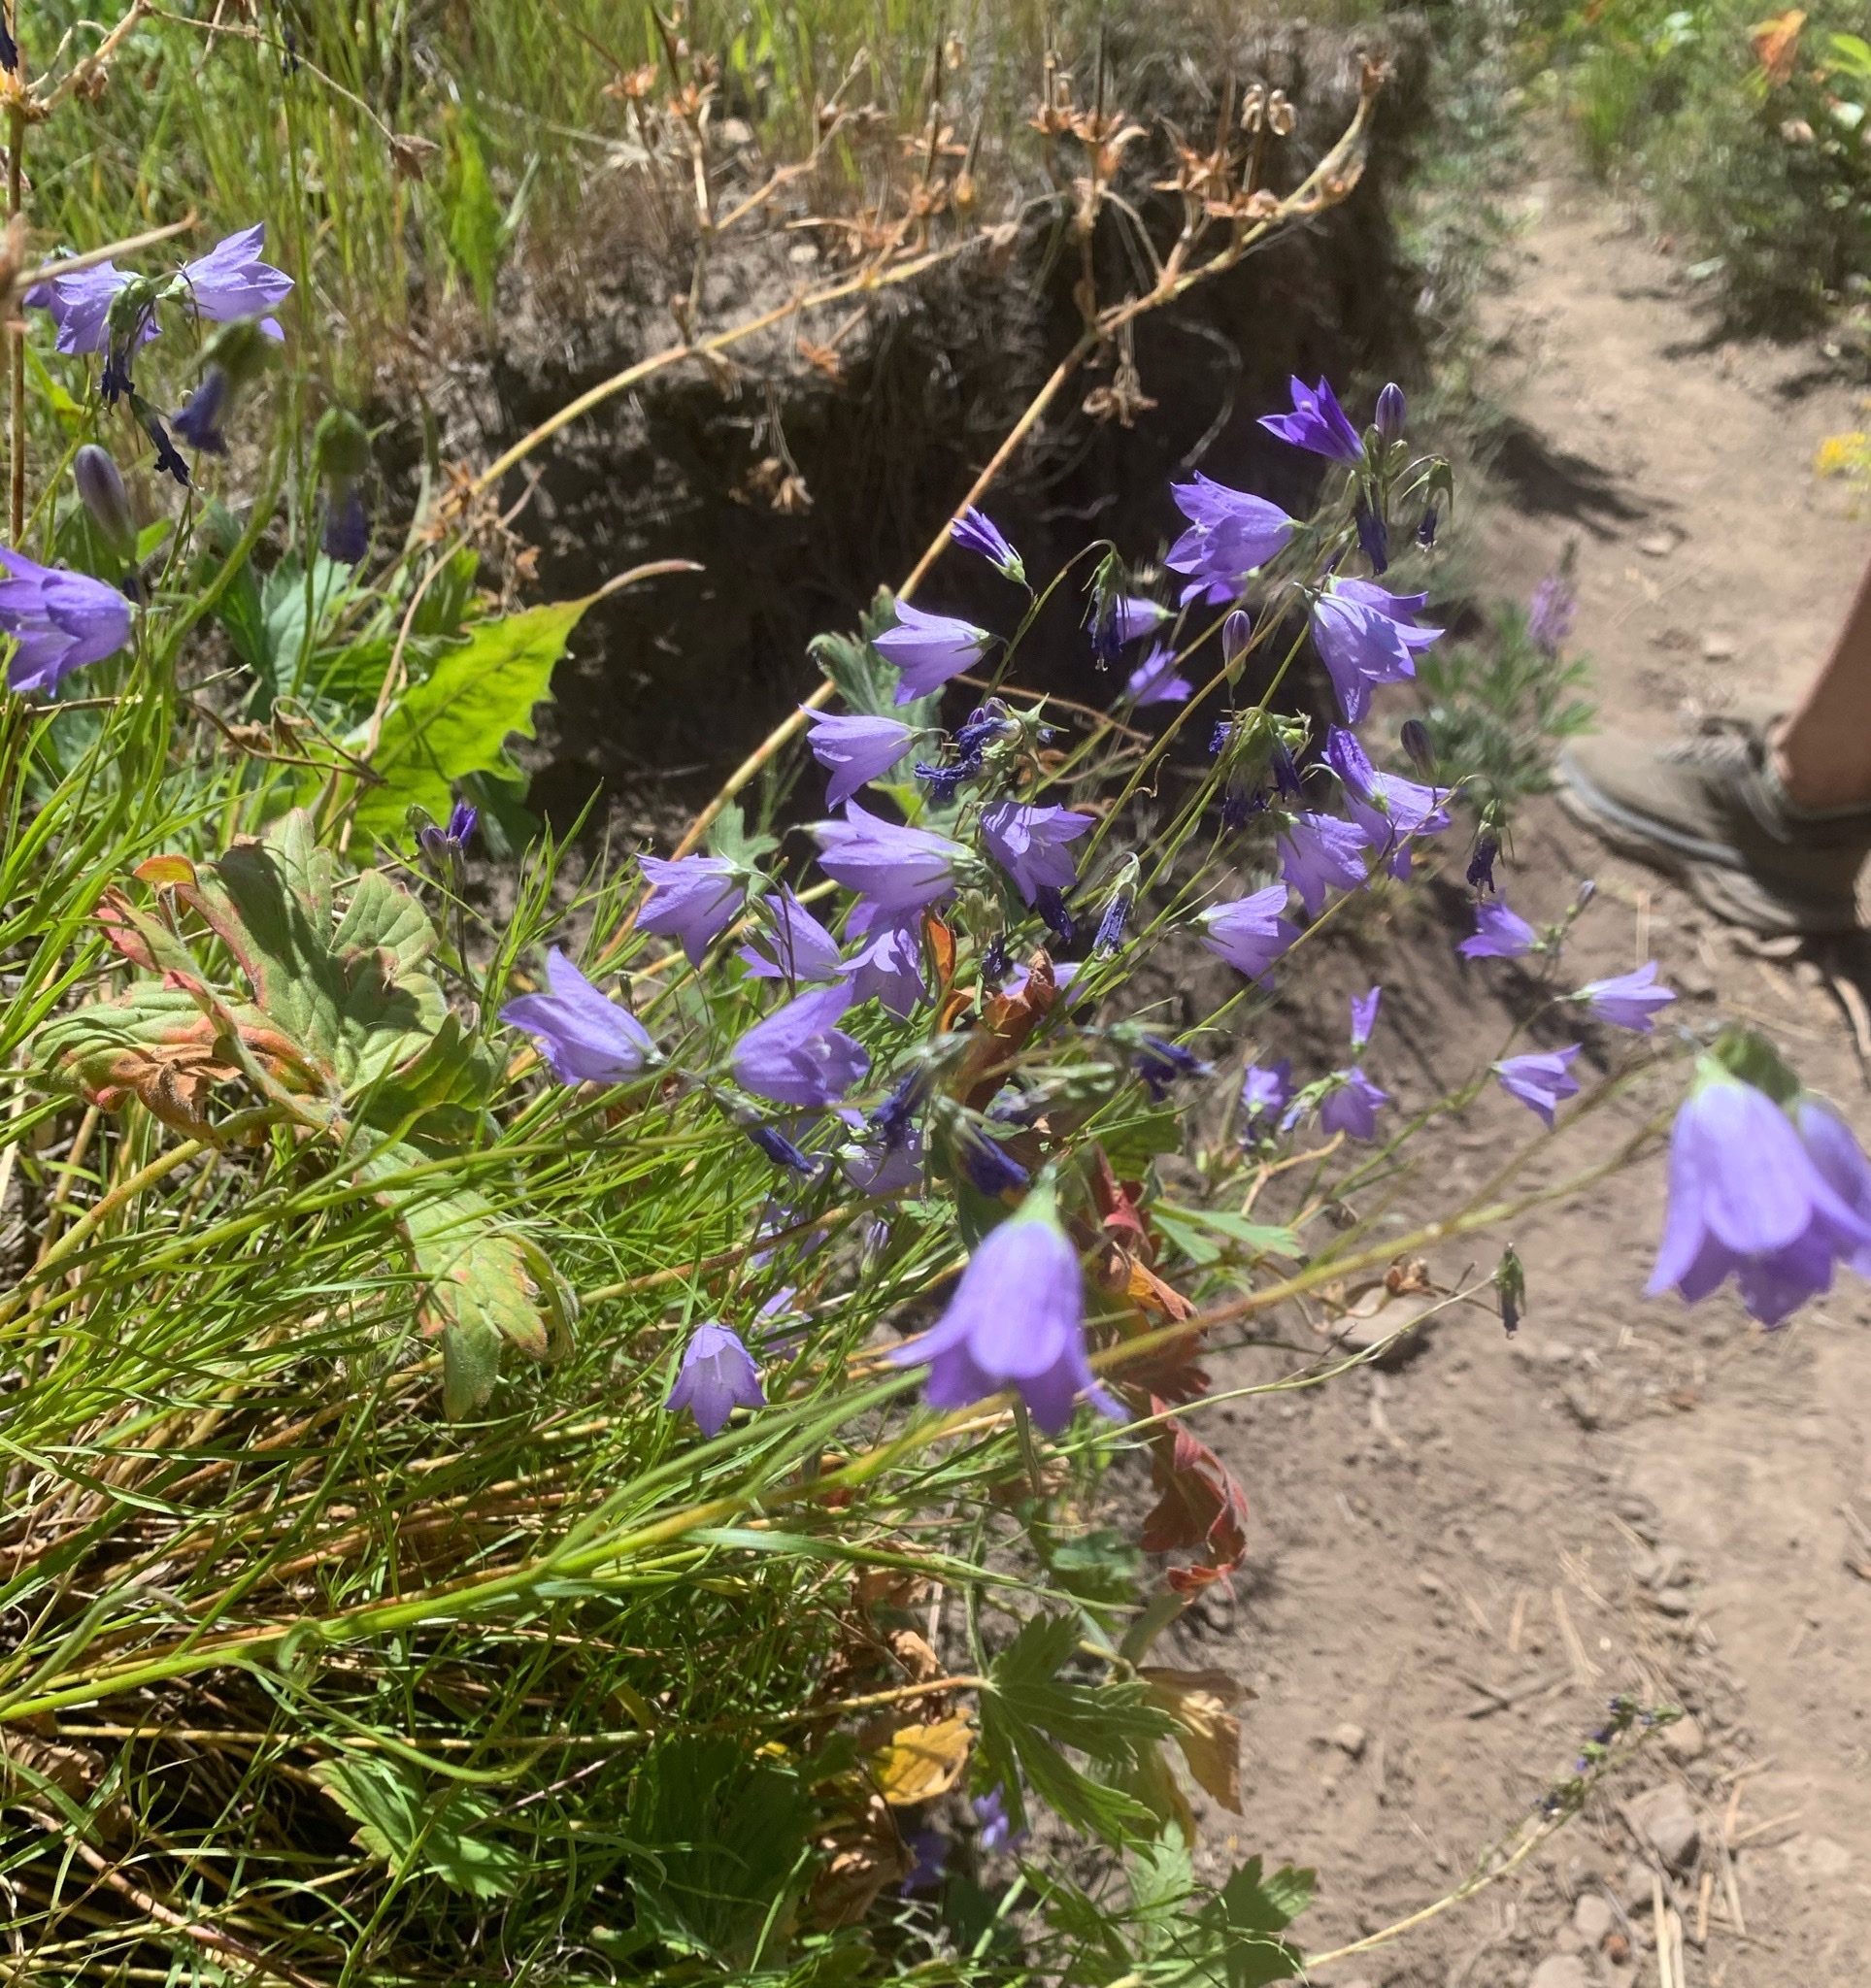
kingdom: Plantae
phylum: Tracheophyta
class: Magnoliopsida
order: Asterales
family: Campanulaceae
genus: Campanula
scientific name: Campanula
